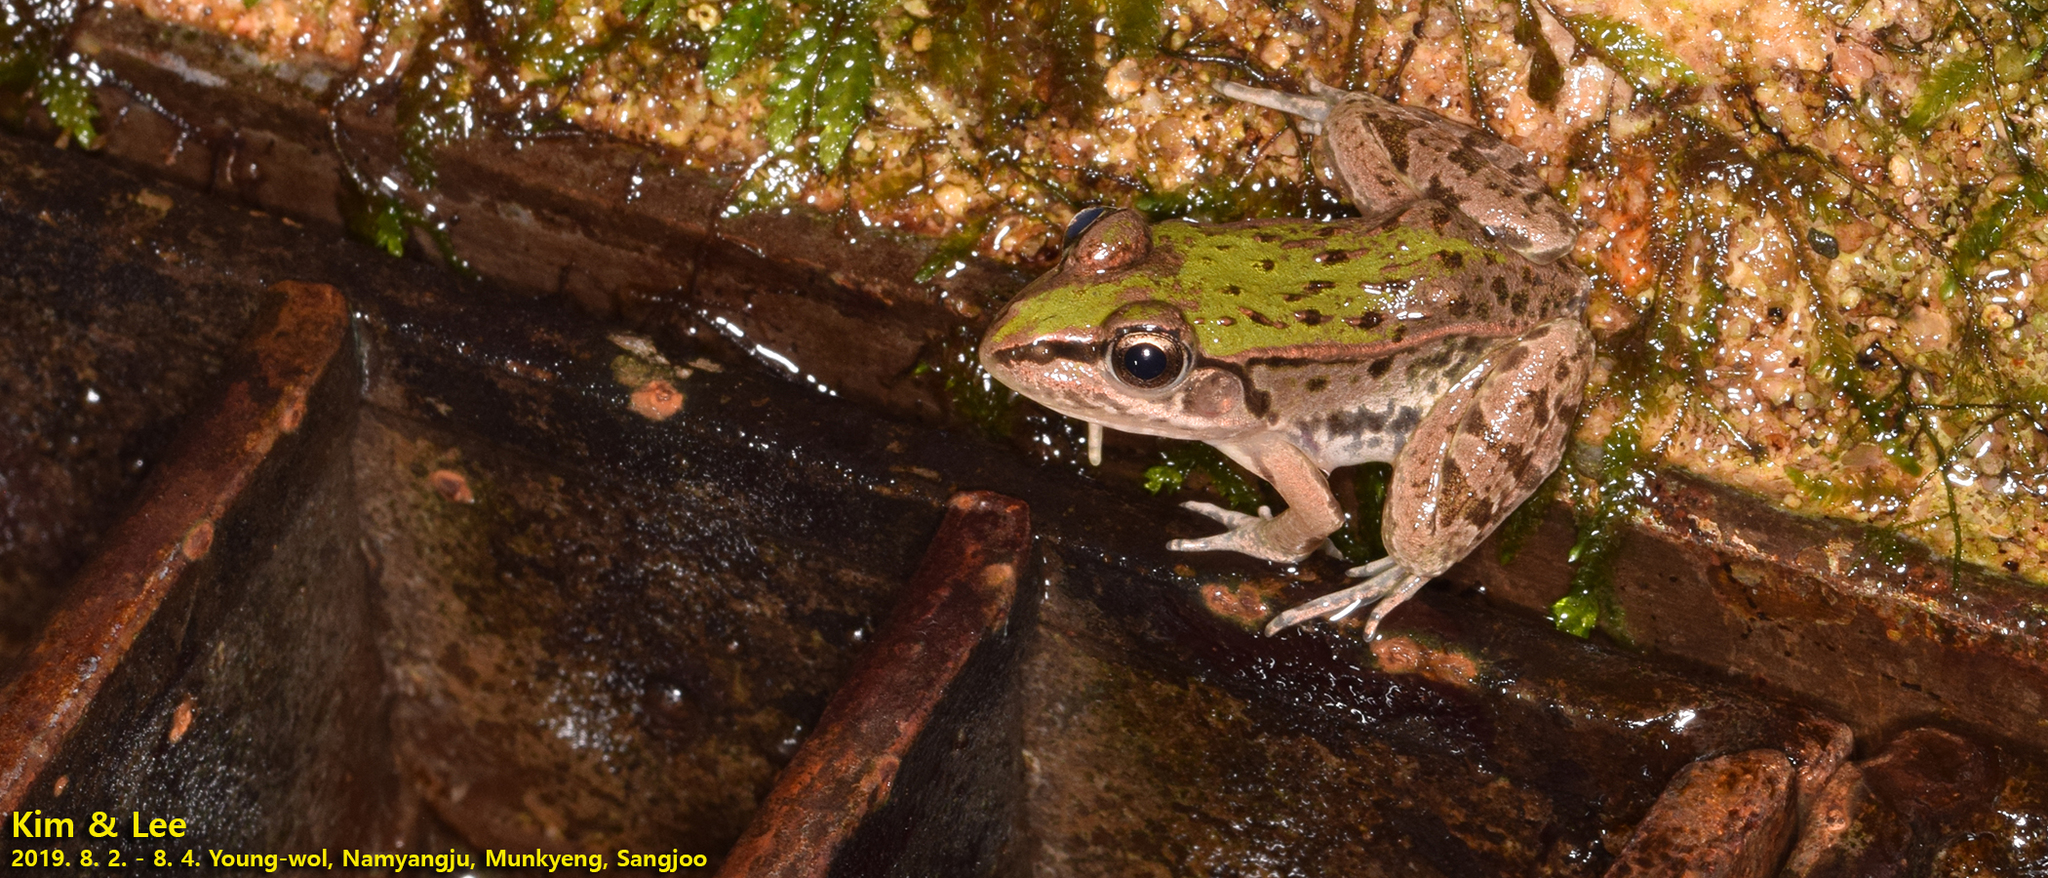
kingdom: Animalia
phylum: Chordata
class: Amphibia
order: Anura
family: Ranidae
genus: Pelophylax
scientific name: Pelophylax nigromaculatus
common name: Black-spotted pond frog
